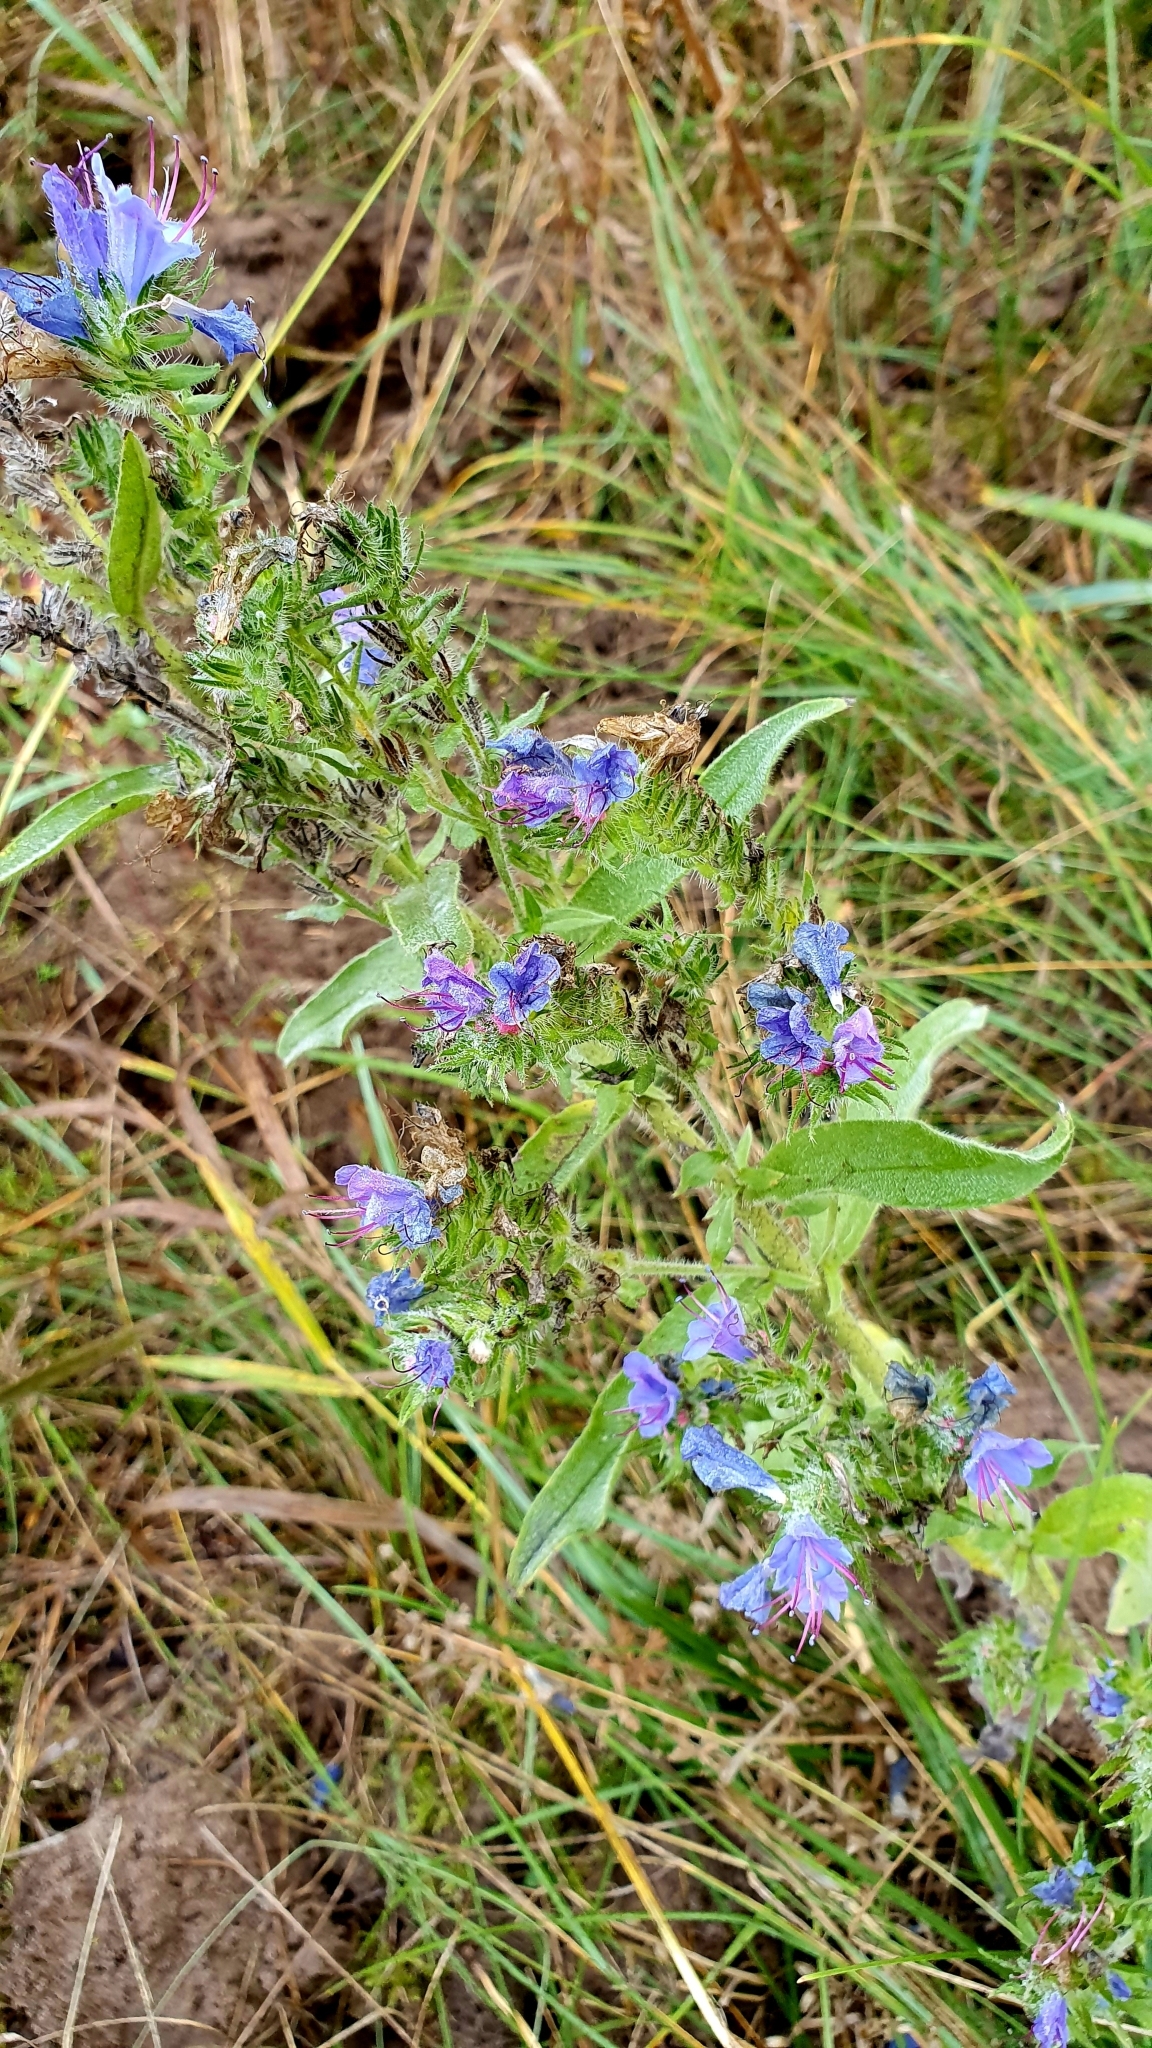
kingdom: Plantae
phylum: Tracheophyta
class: Magnoliopsida
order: Boraginales
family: Boraginaceae
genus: Echium
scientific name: Echium vulgare
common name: Common viper's bugloss
